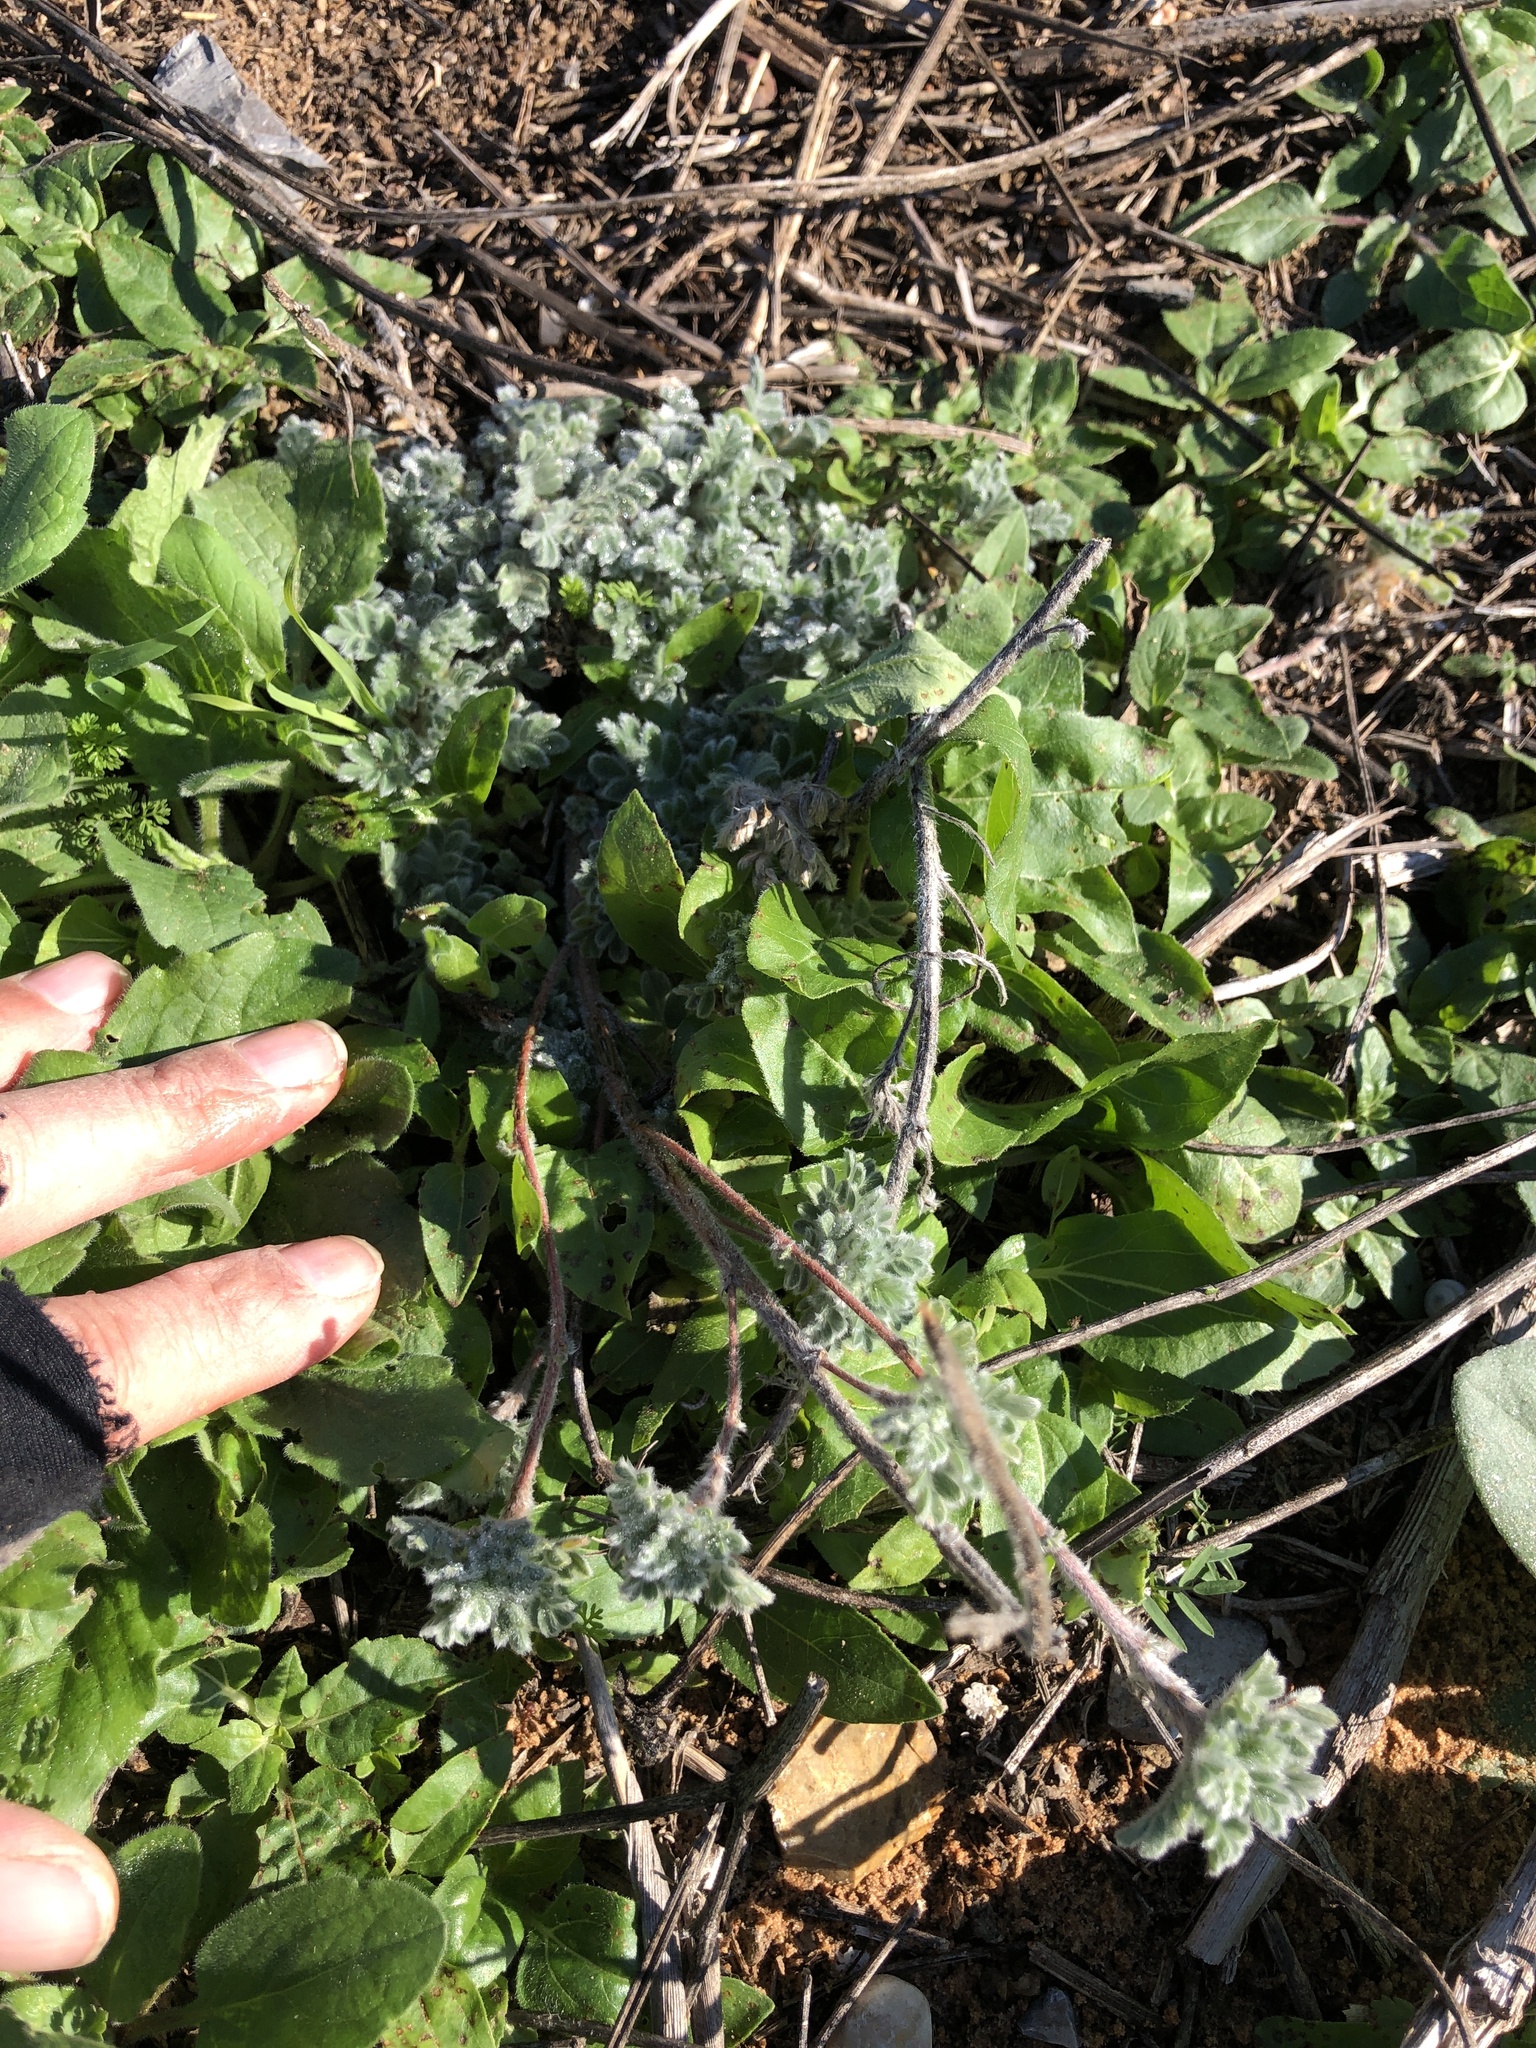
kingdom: Plantae
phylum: Tracheophyta
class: Magnoliopsida
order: Fabales
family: Fabaceae
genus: Dalea
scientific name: Dalea obovata
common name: Pussyfoot
